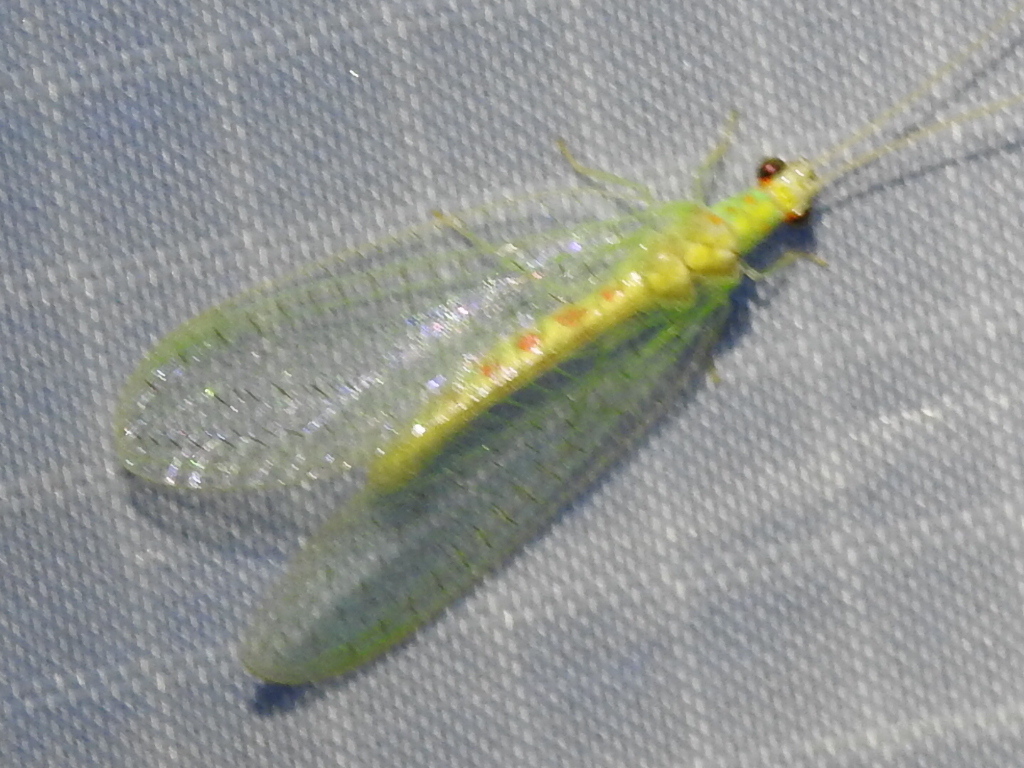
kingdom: Animalia
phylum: Arthropoda
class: Insecta
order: Neuroptera
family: Chrysopidae
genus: Chrysopa
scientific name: Chrysopa quadripunctata
